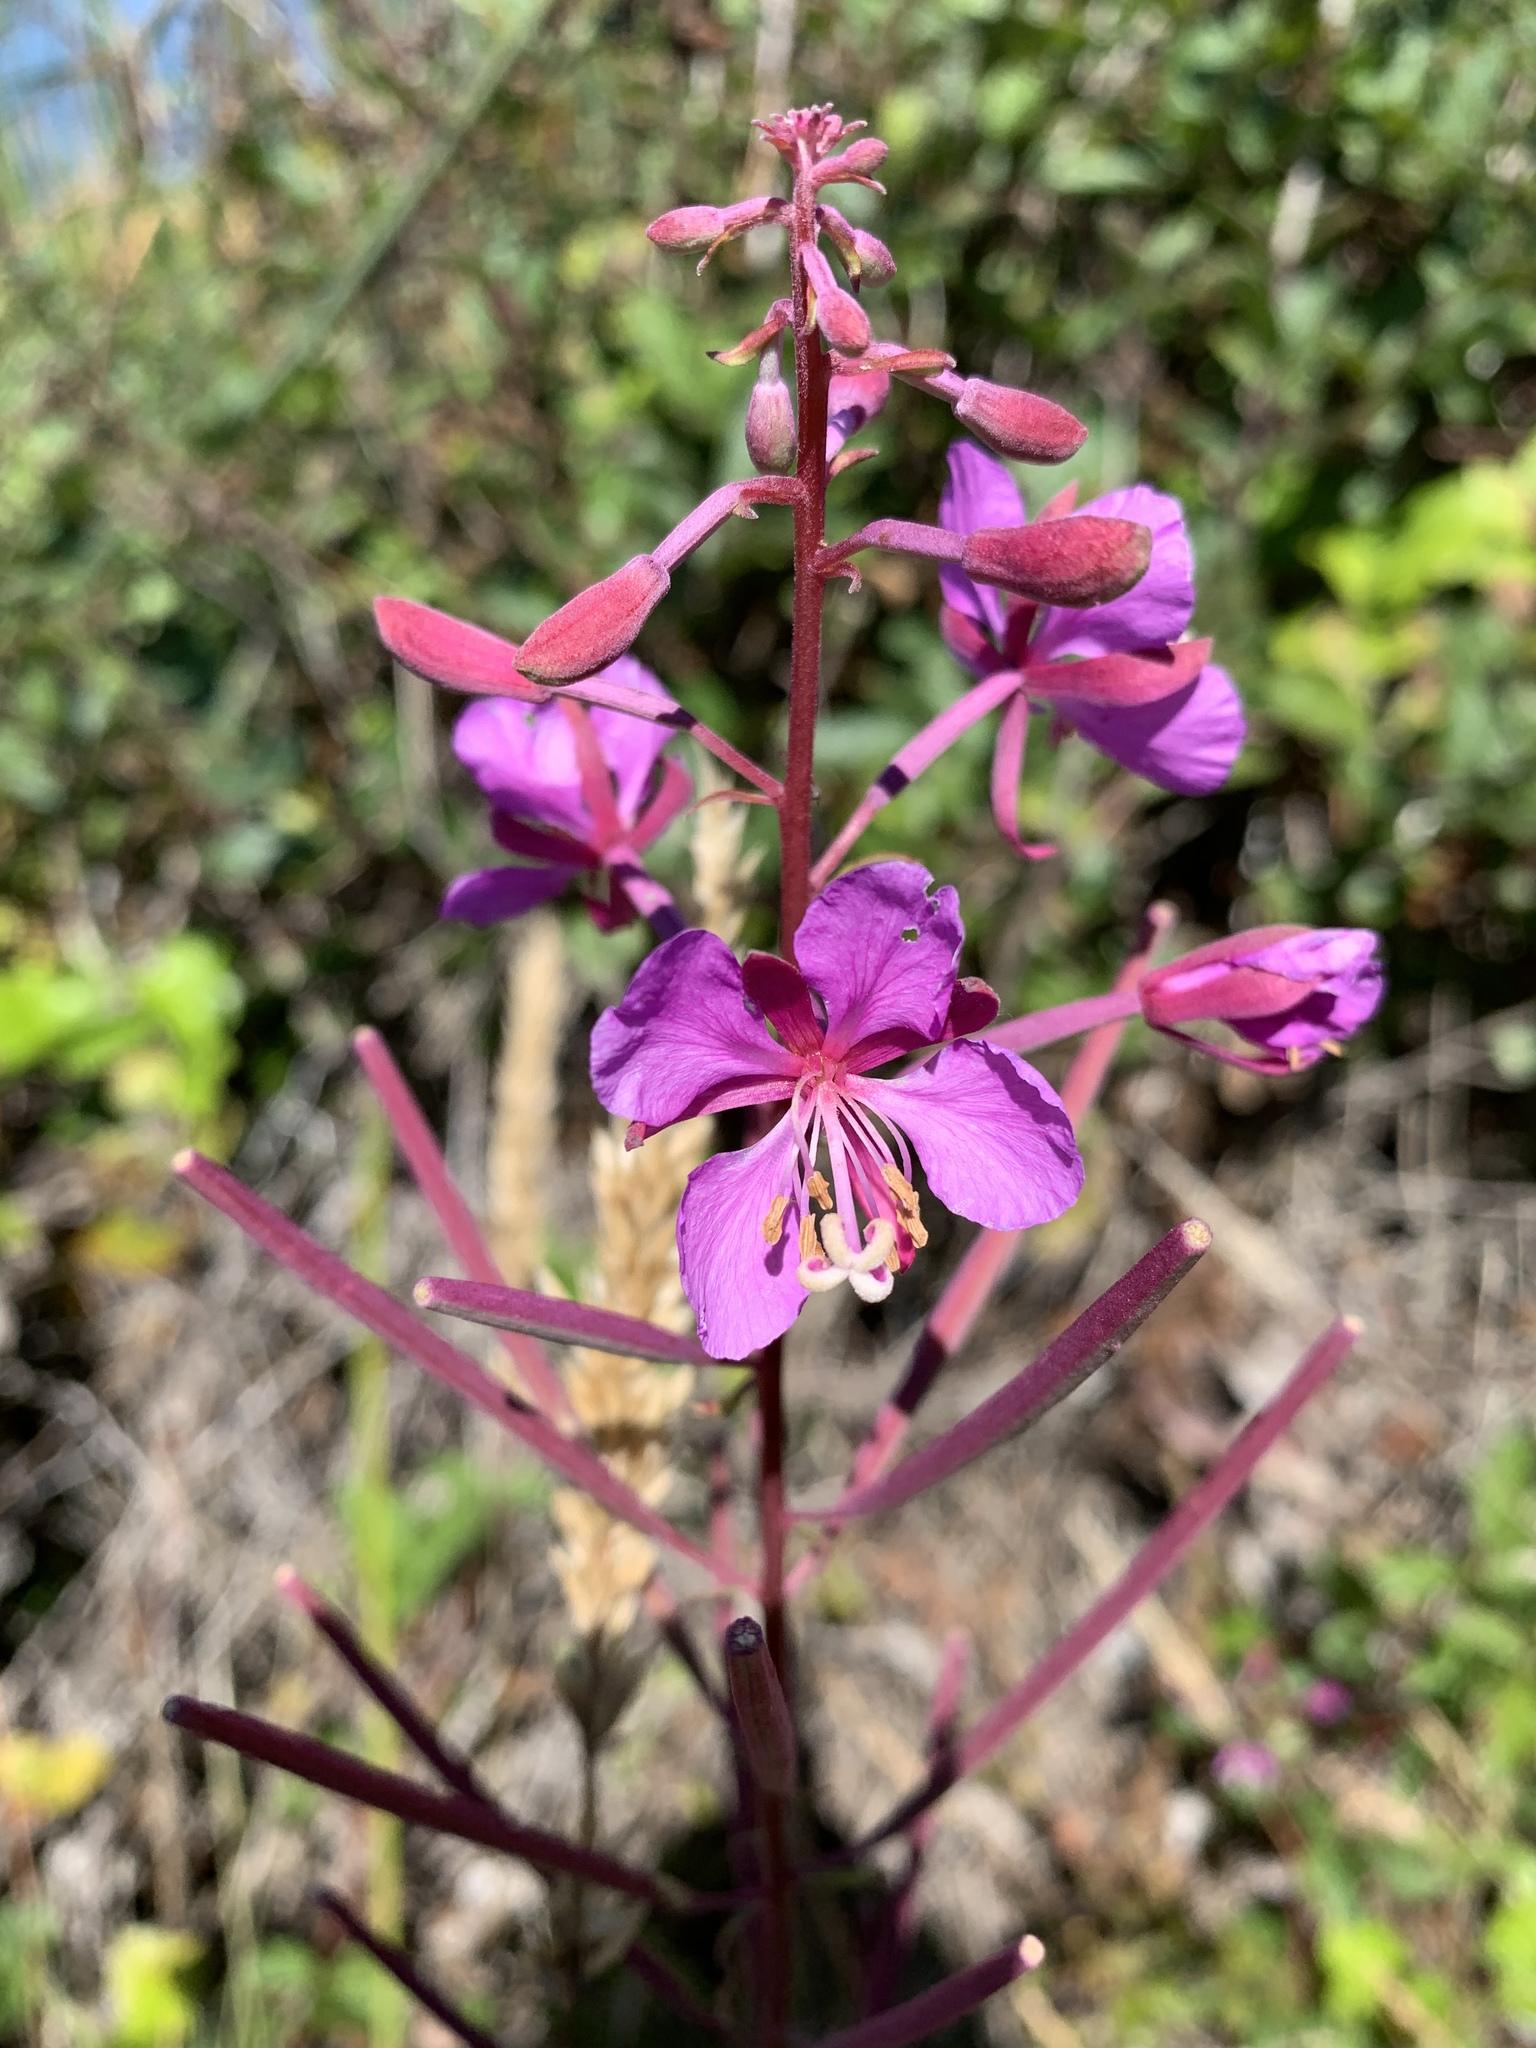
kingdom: Plantae
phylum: Tracheophyta
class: Magnoliopsida
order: Myrtales
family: Onagraceae
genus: Chamaenerion
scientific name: Chamaenerion angustifolium
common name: Fireweed
